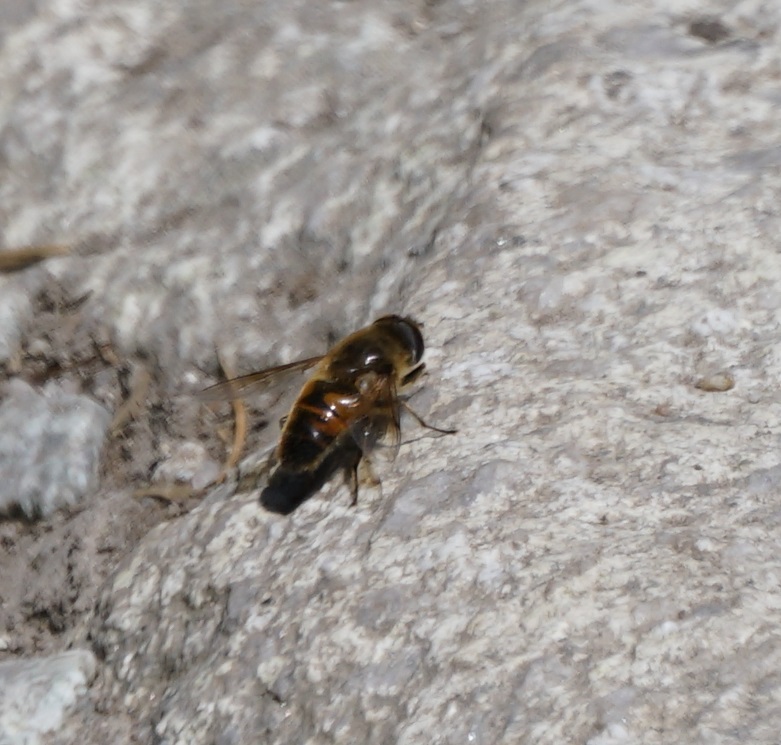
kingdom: Animalia
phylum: Arthropoda
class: Insecta
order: Diptera
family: Syrphidae
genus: Eristalis
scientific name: Eristalis tenax
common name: Drone fly
